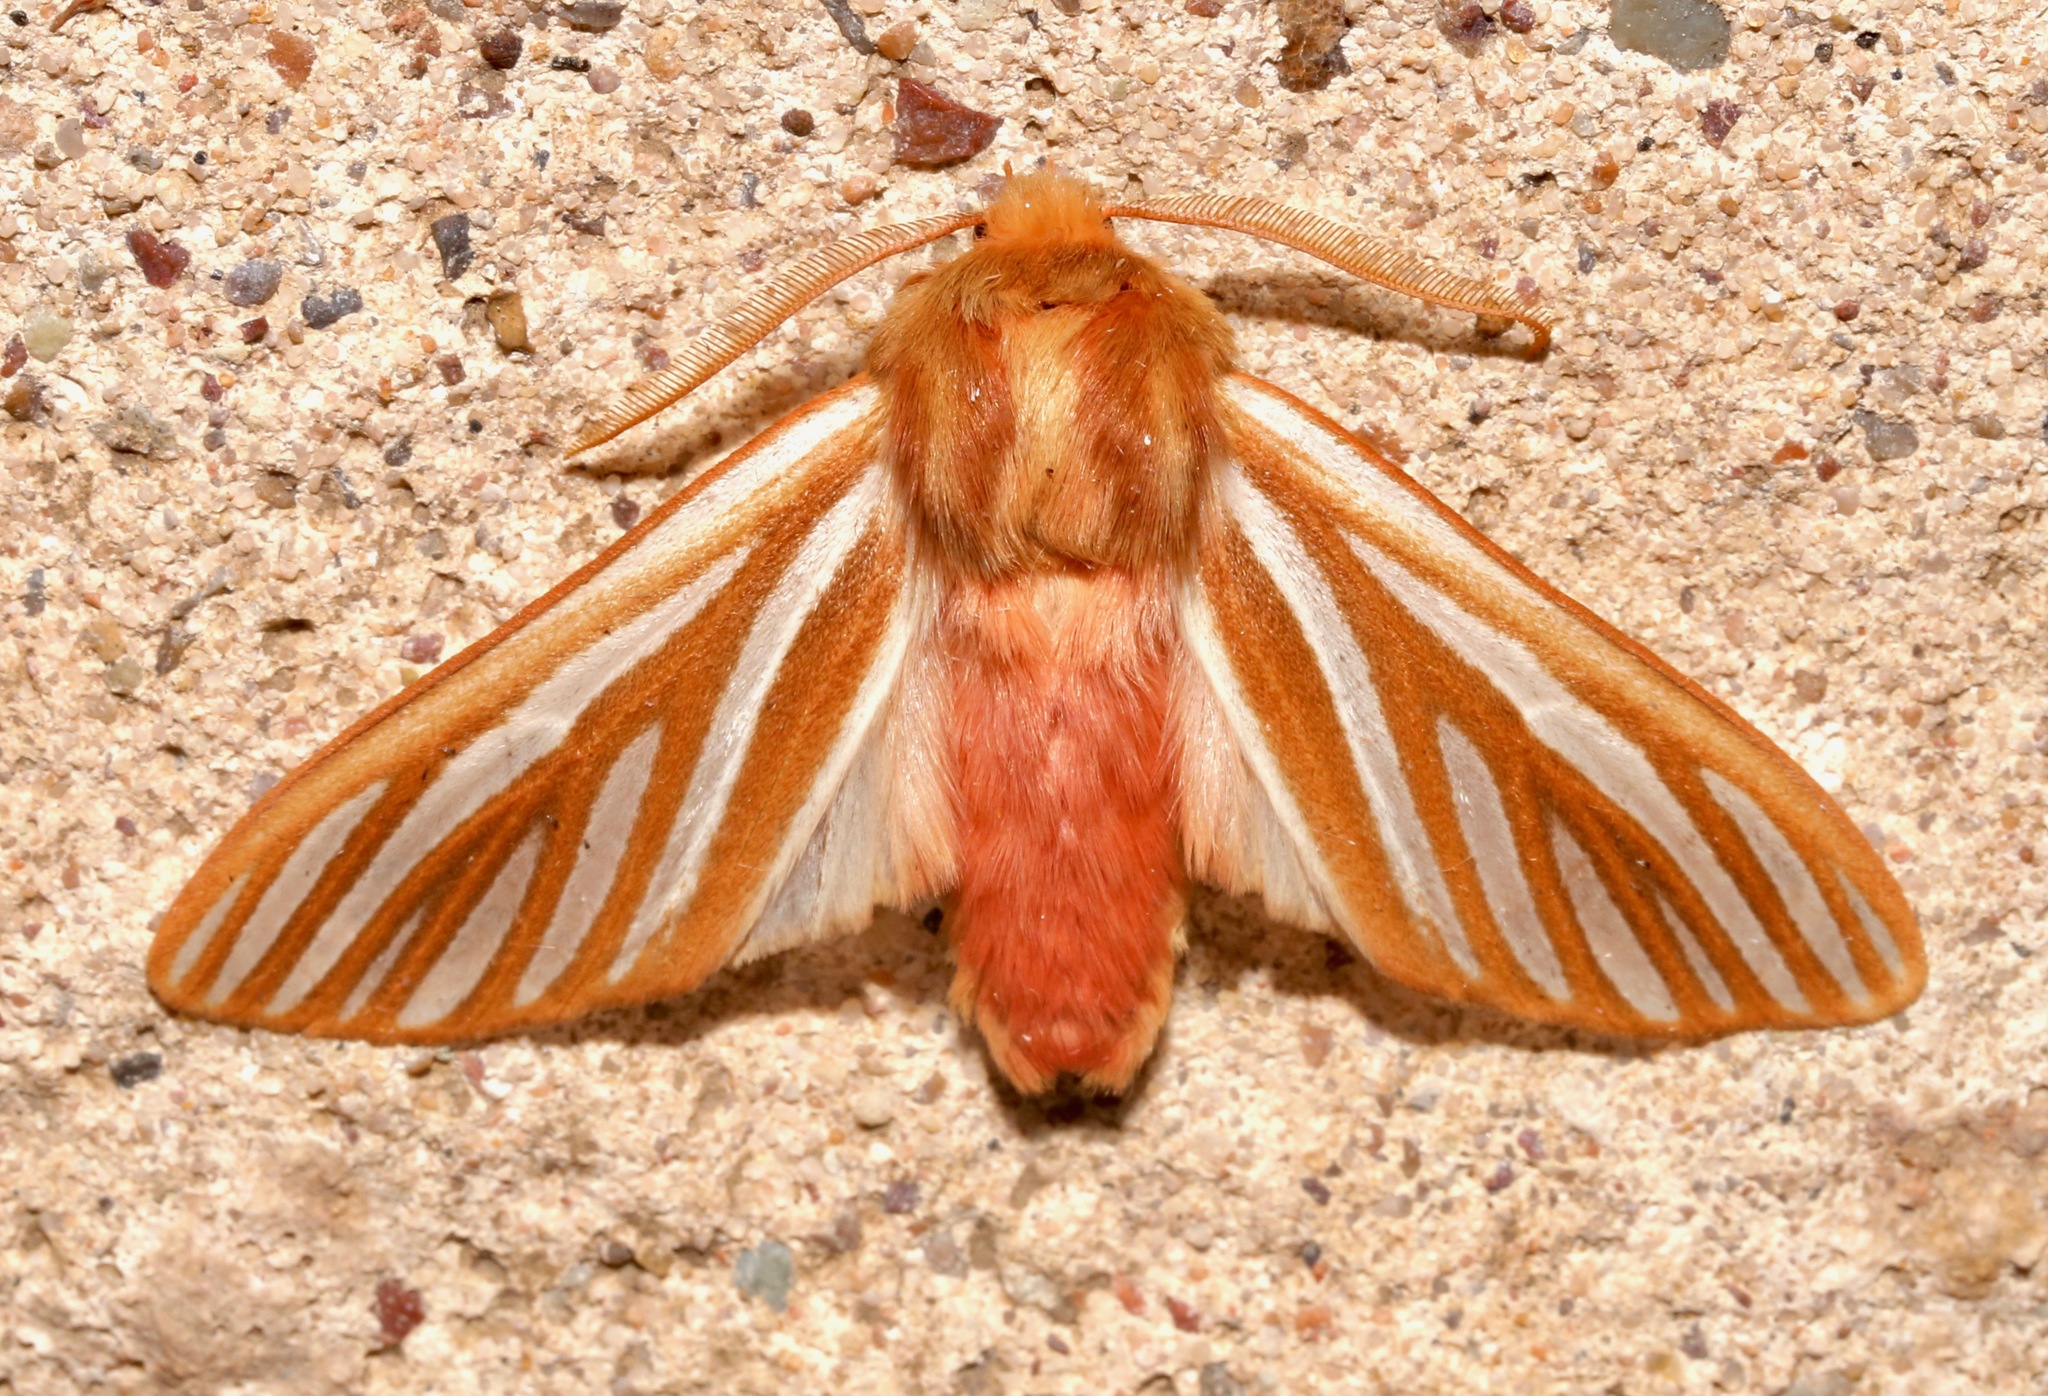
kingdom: Animalia
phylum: Arthropoda
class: Insecta
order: Lepidoptera
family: Erebidae
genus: Hemihyalea
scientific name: Hemihyalea ambigua
